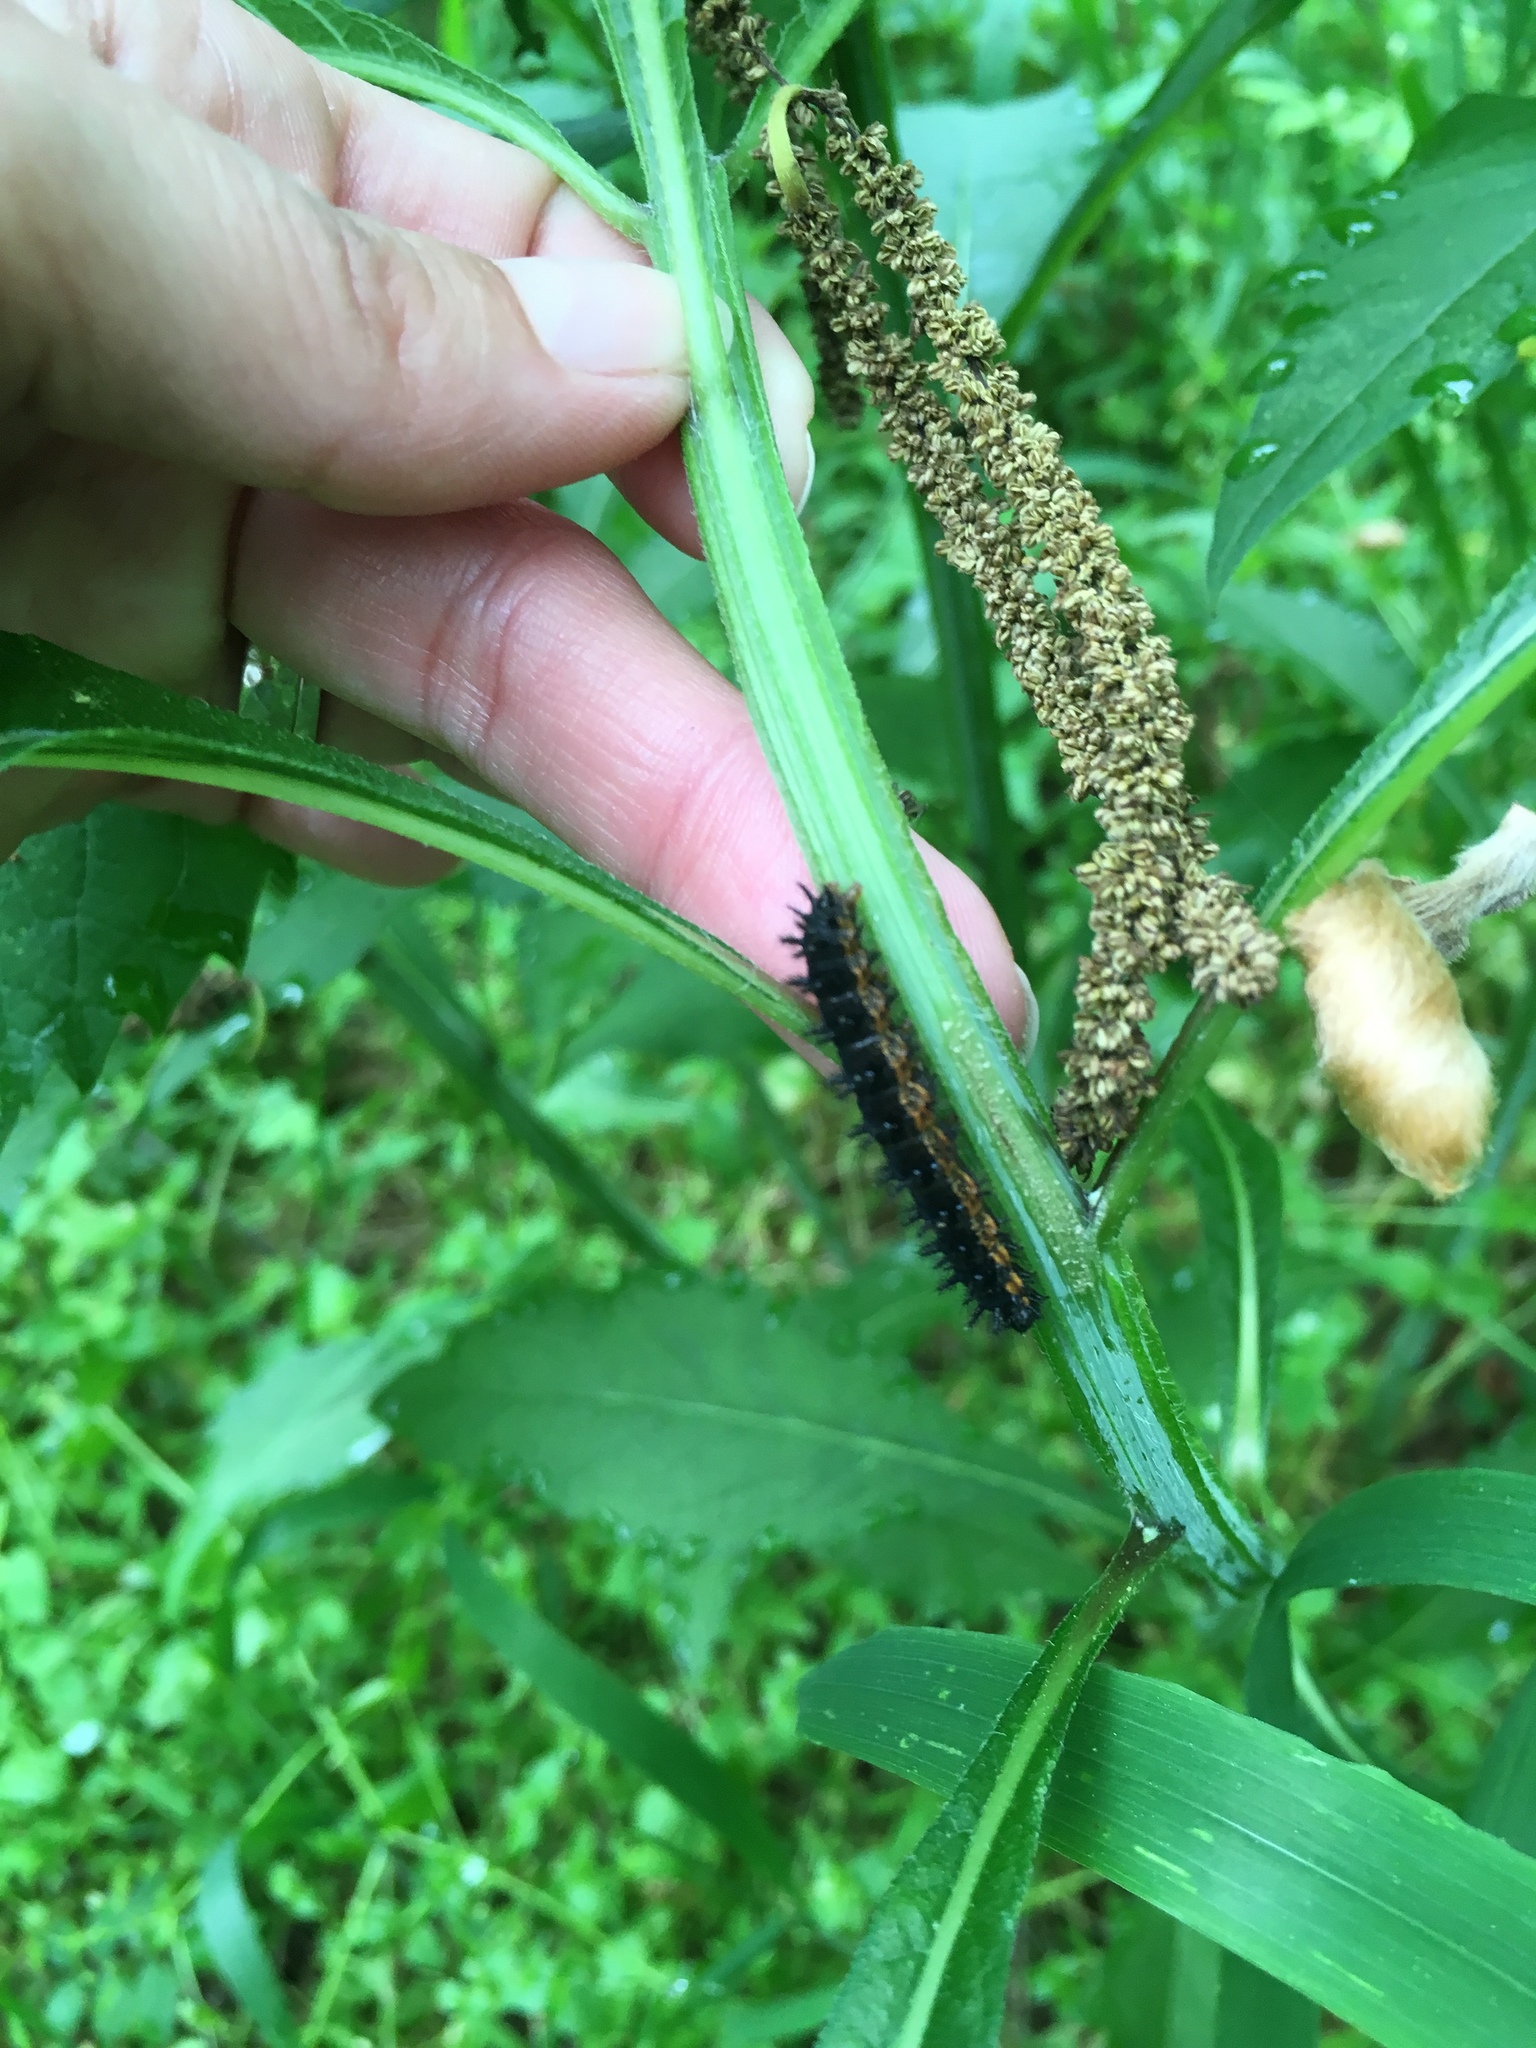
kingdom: Animalia
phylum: Arthropoda
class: Insecta
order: Lepidoptera
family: Nymphalidae
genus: Chlosyne
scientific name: Chlosyne nycteis
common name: Silvery checkerspot
